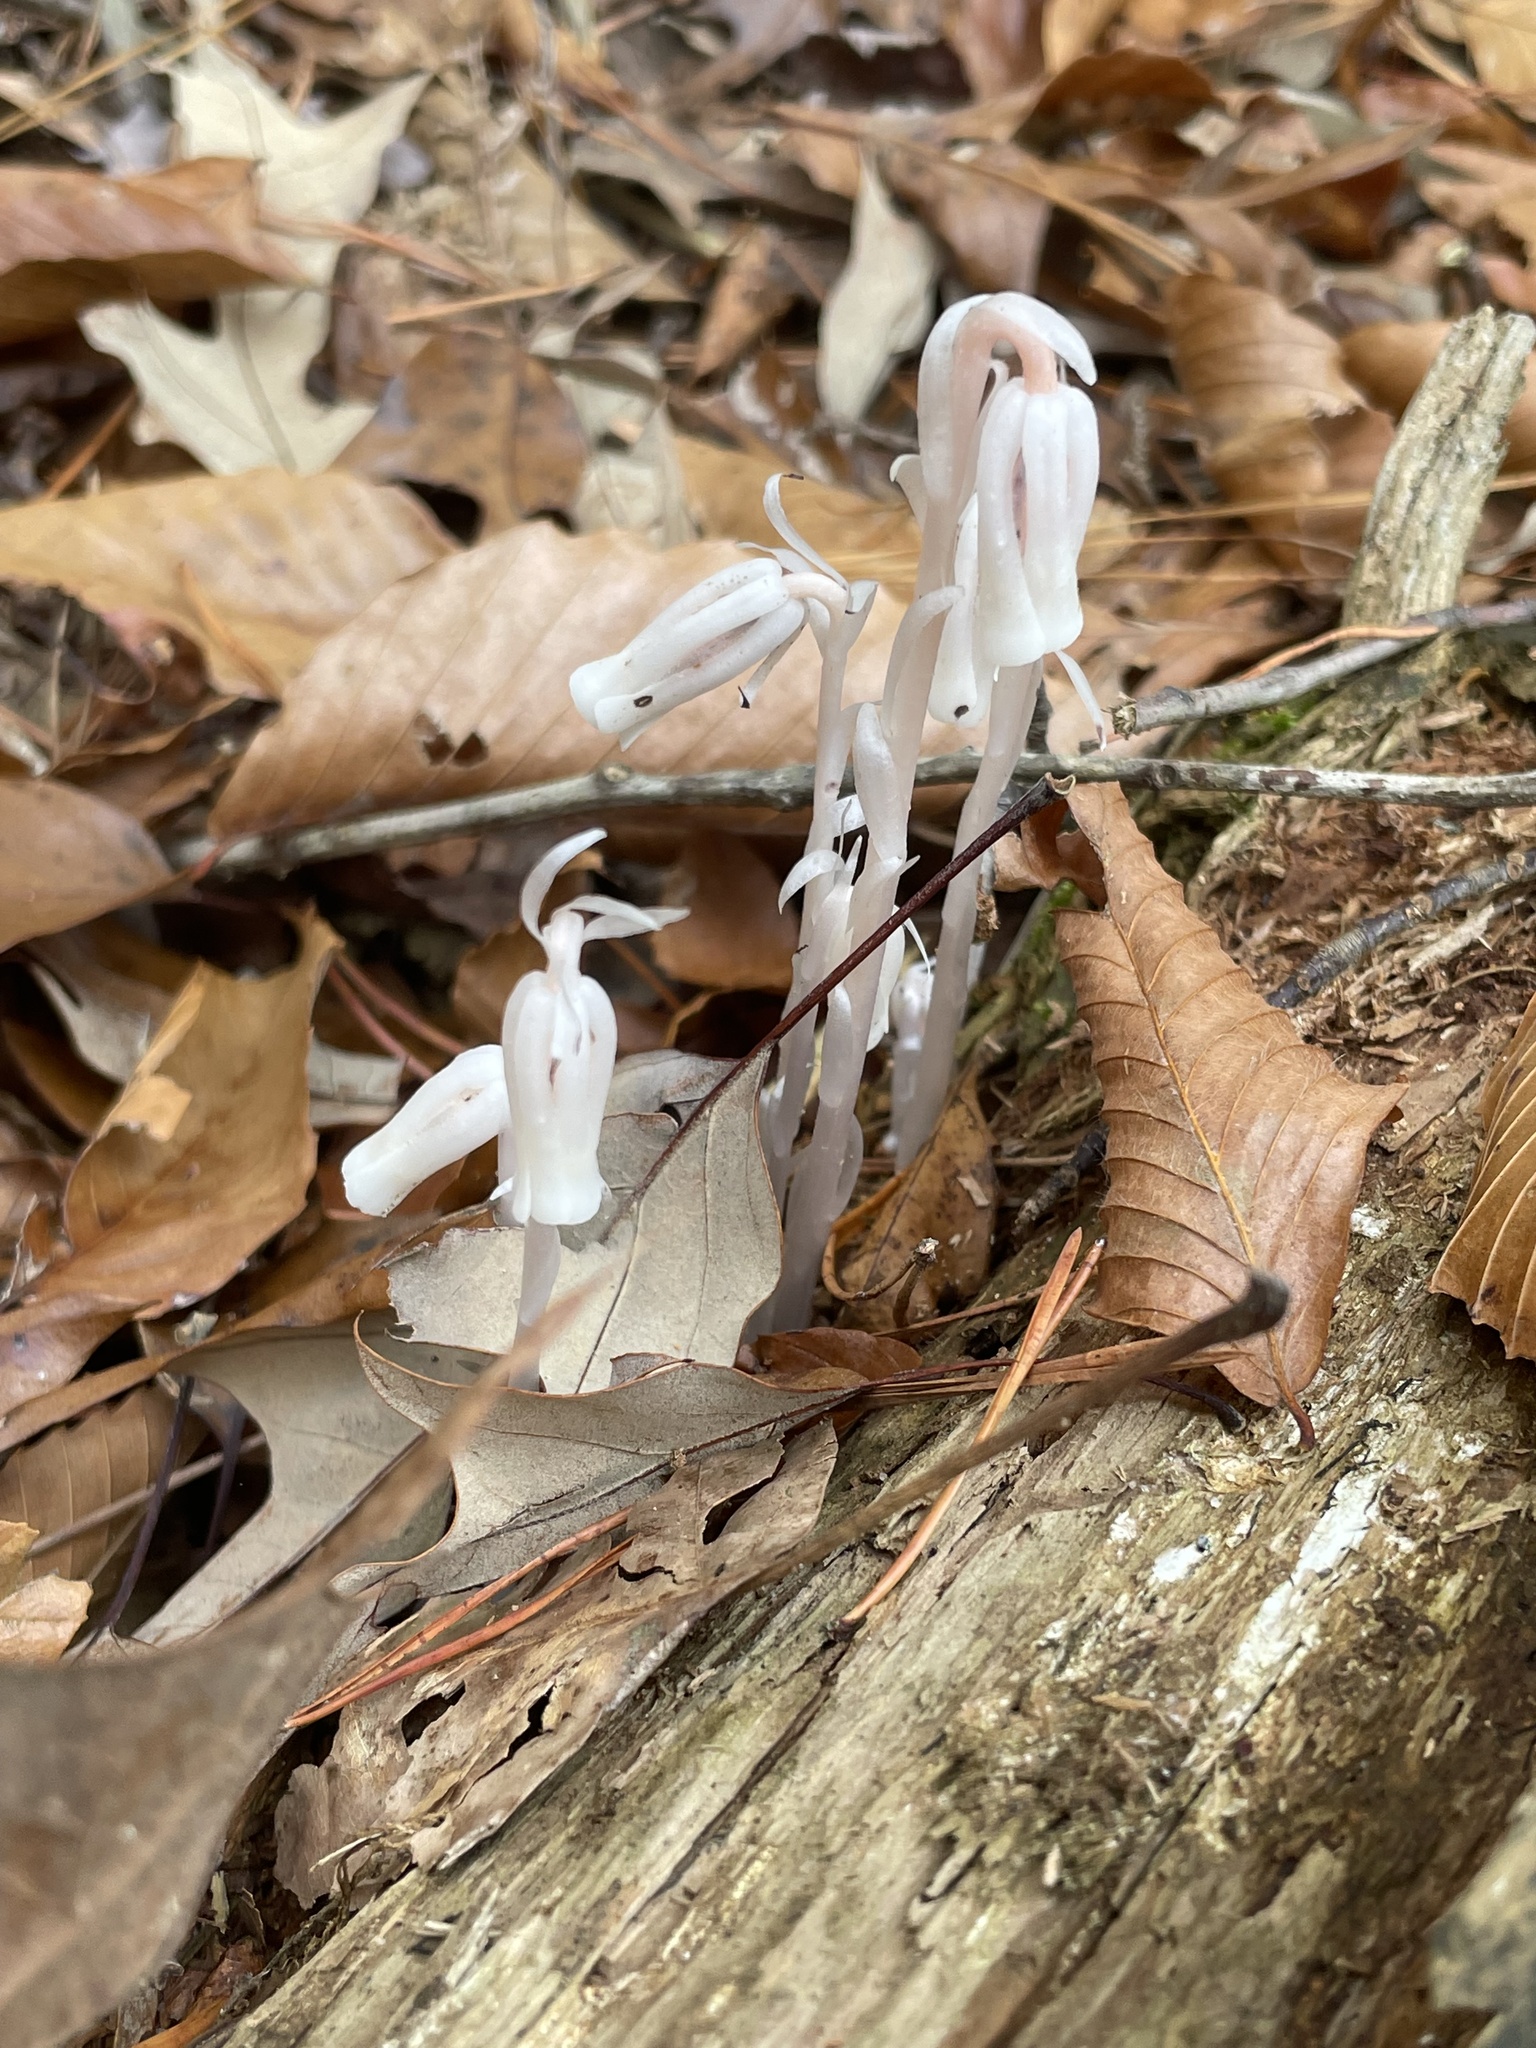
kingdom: Plantae
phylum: Tracheophyta
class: Magnoliopsida
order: Ericales
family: Ericaceae
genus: Monotropa
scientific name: Monotropa uniflora
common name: Convulsion root
